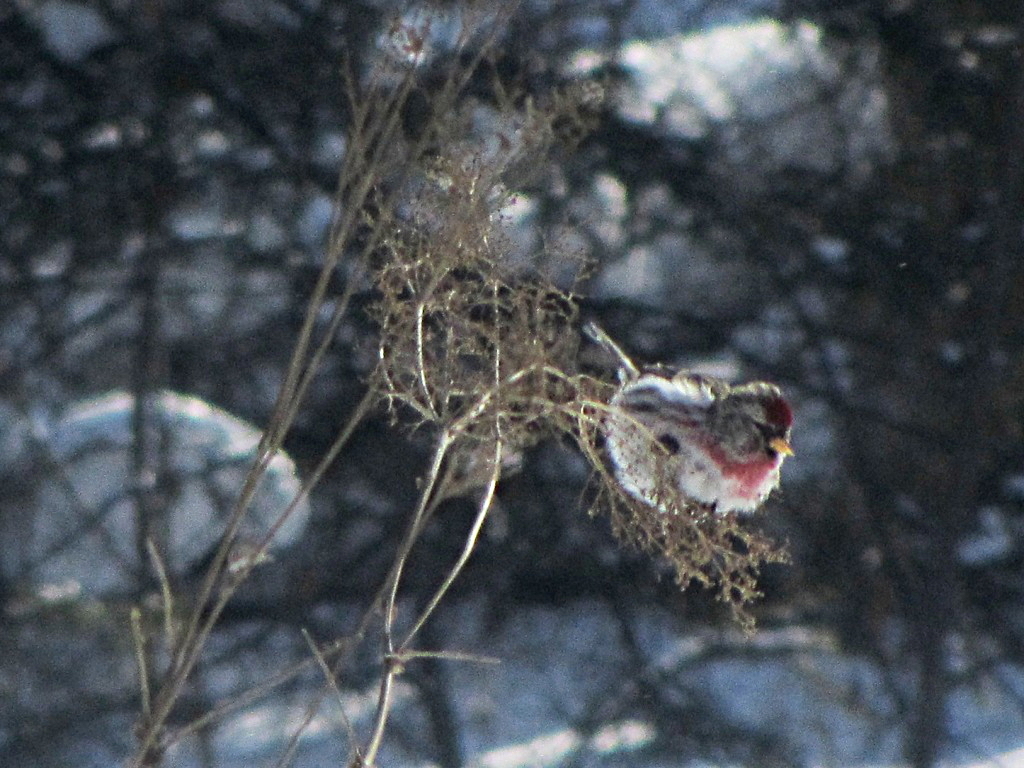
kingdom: Animalia
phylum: Chordata
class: Aves
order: Passeriformes
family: Fringillidae
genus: Acanthis
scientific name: Acanthis flammea
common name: Common redpoll
